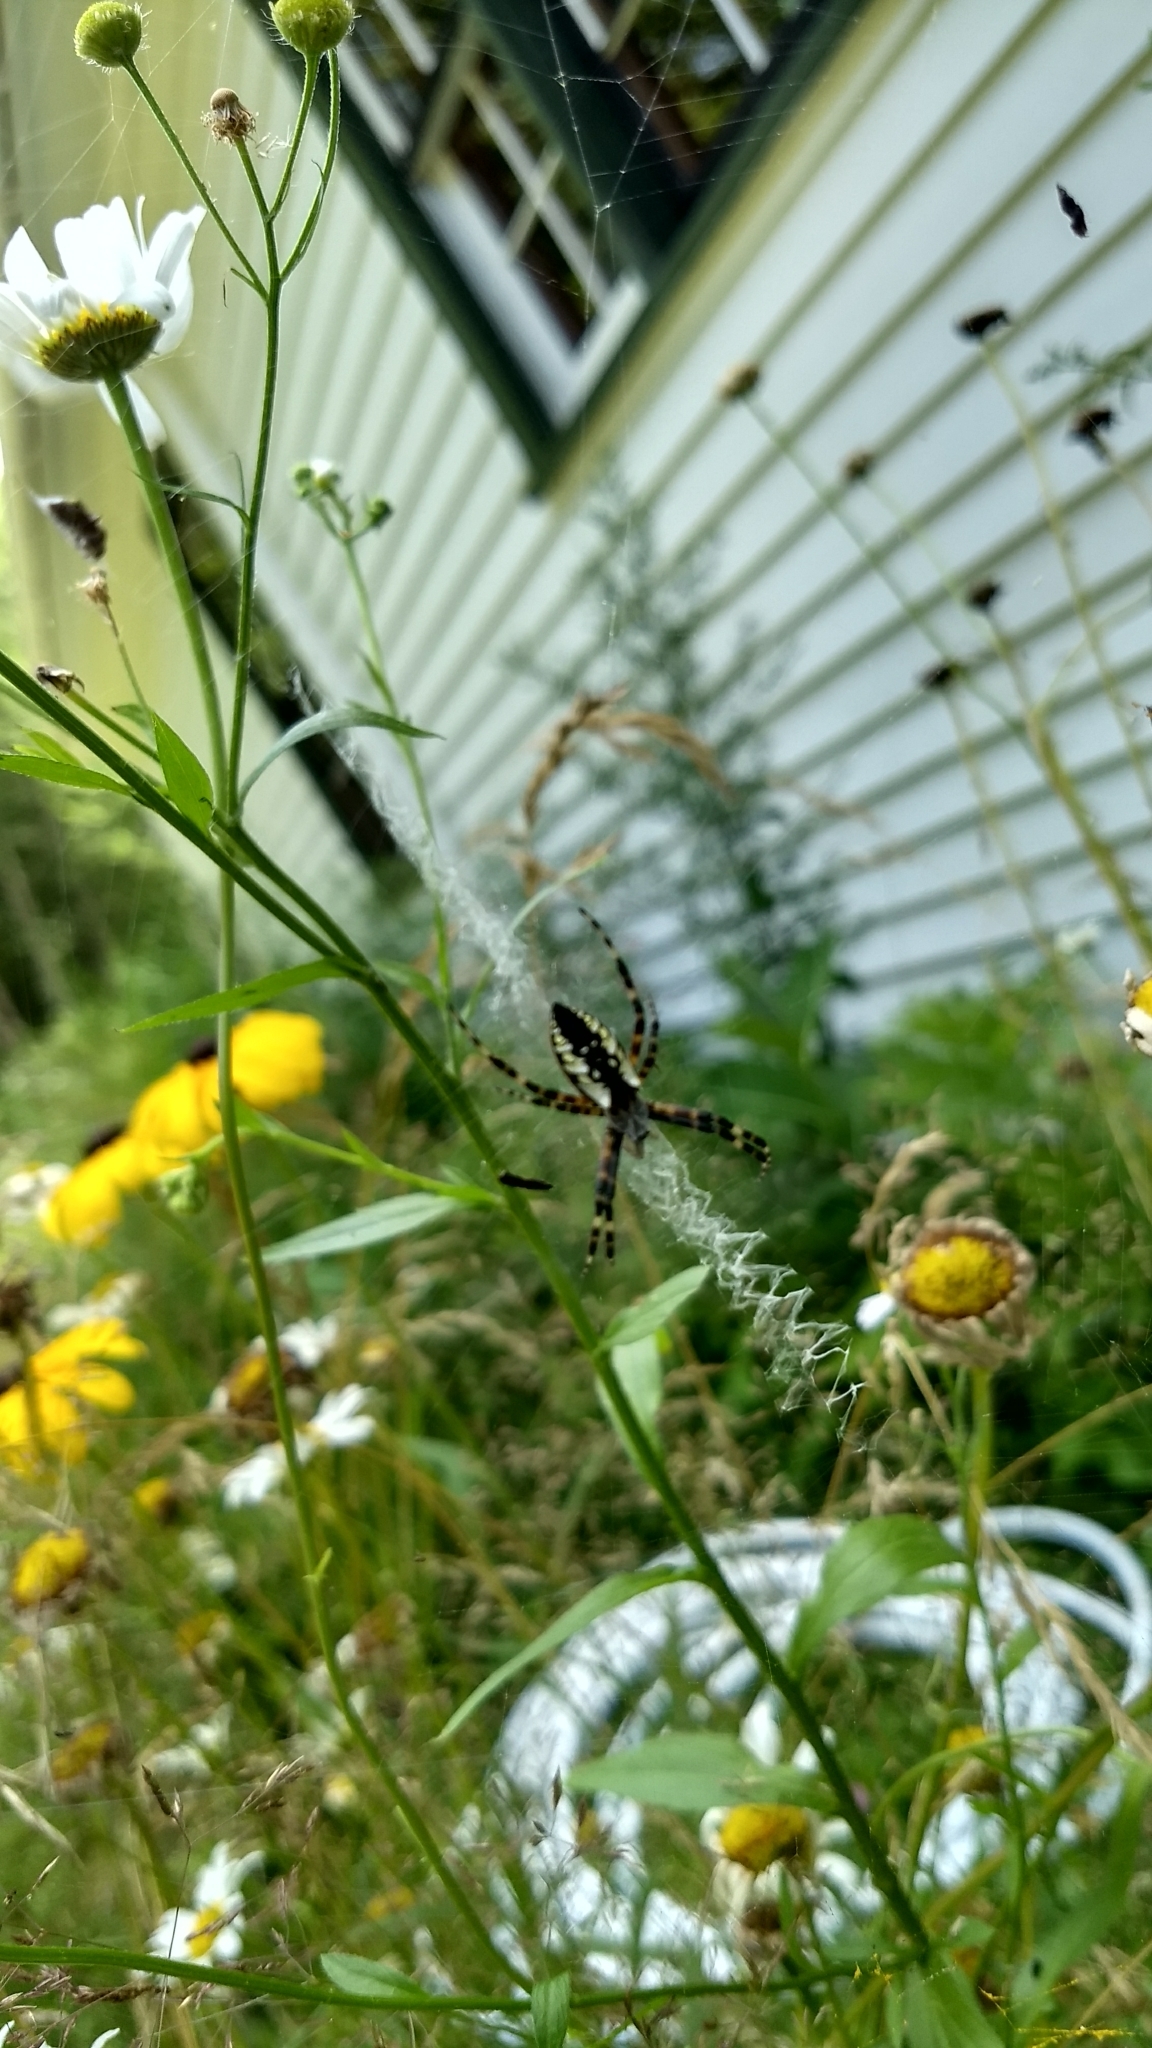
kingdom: Animalia
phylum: Arthropoda
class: Arachnida
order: Araneae
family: Araneidae
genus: Argiope
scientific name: Argiope aurantia
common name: Orb weavers
